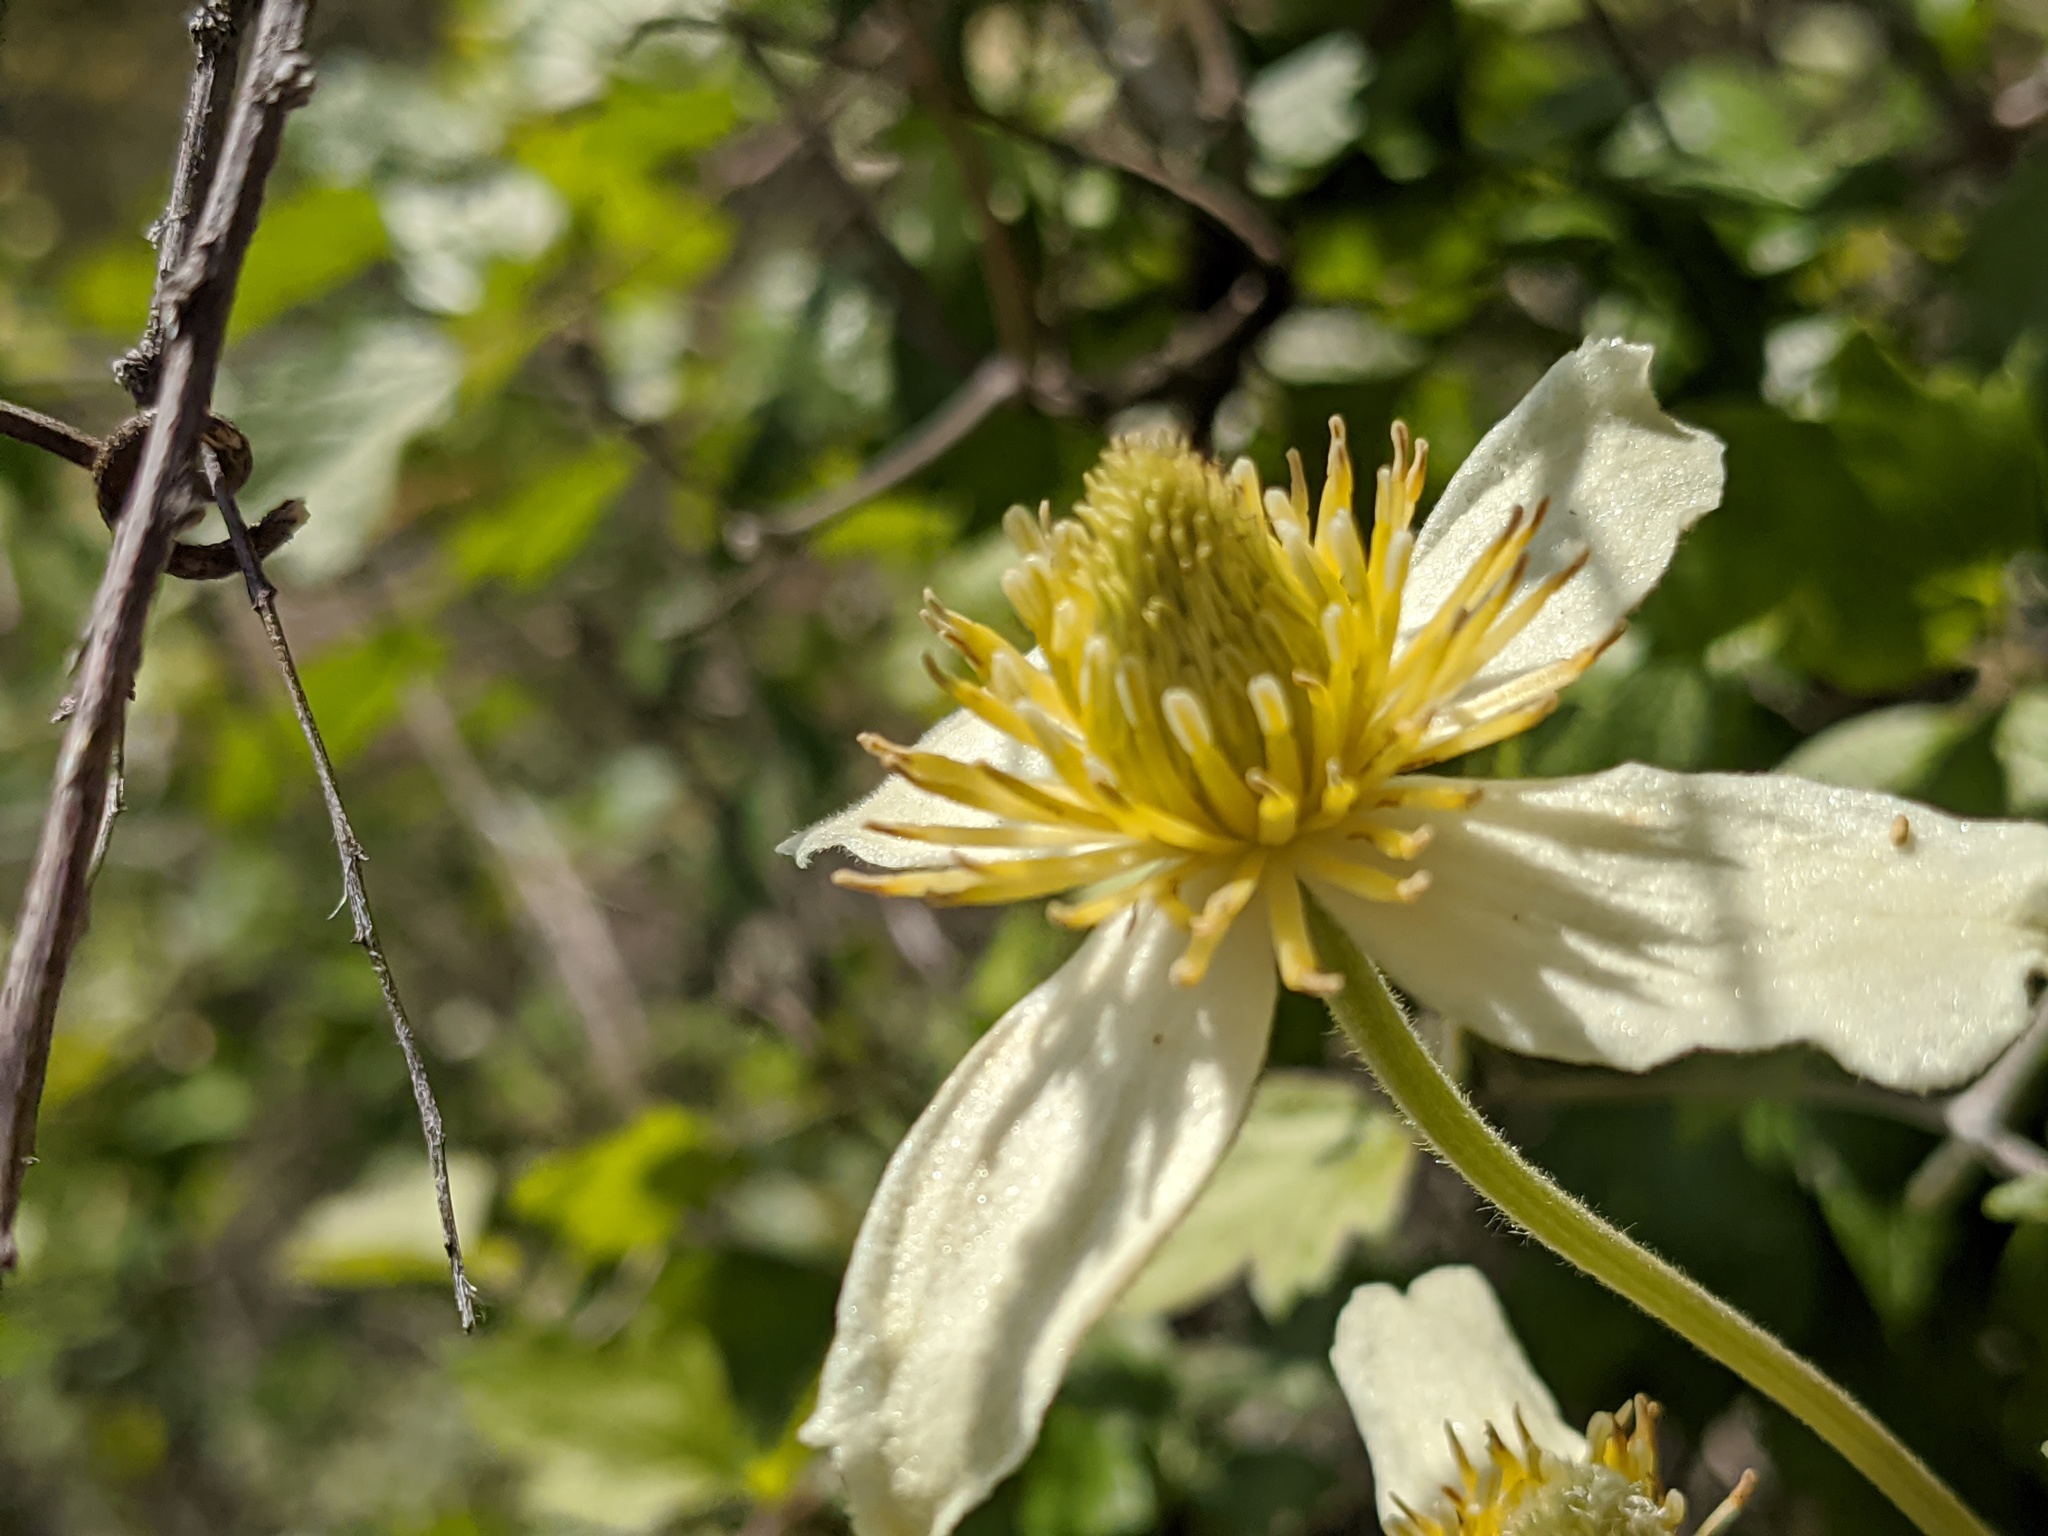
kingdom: Plantae
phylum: Tracheophyta
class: Magnoliopsida
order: Ranunculales
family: Ranunculaceae
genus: Clematis
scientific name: Clematis lasiantha
